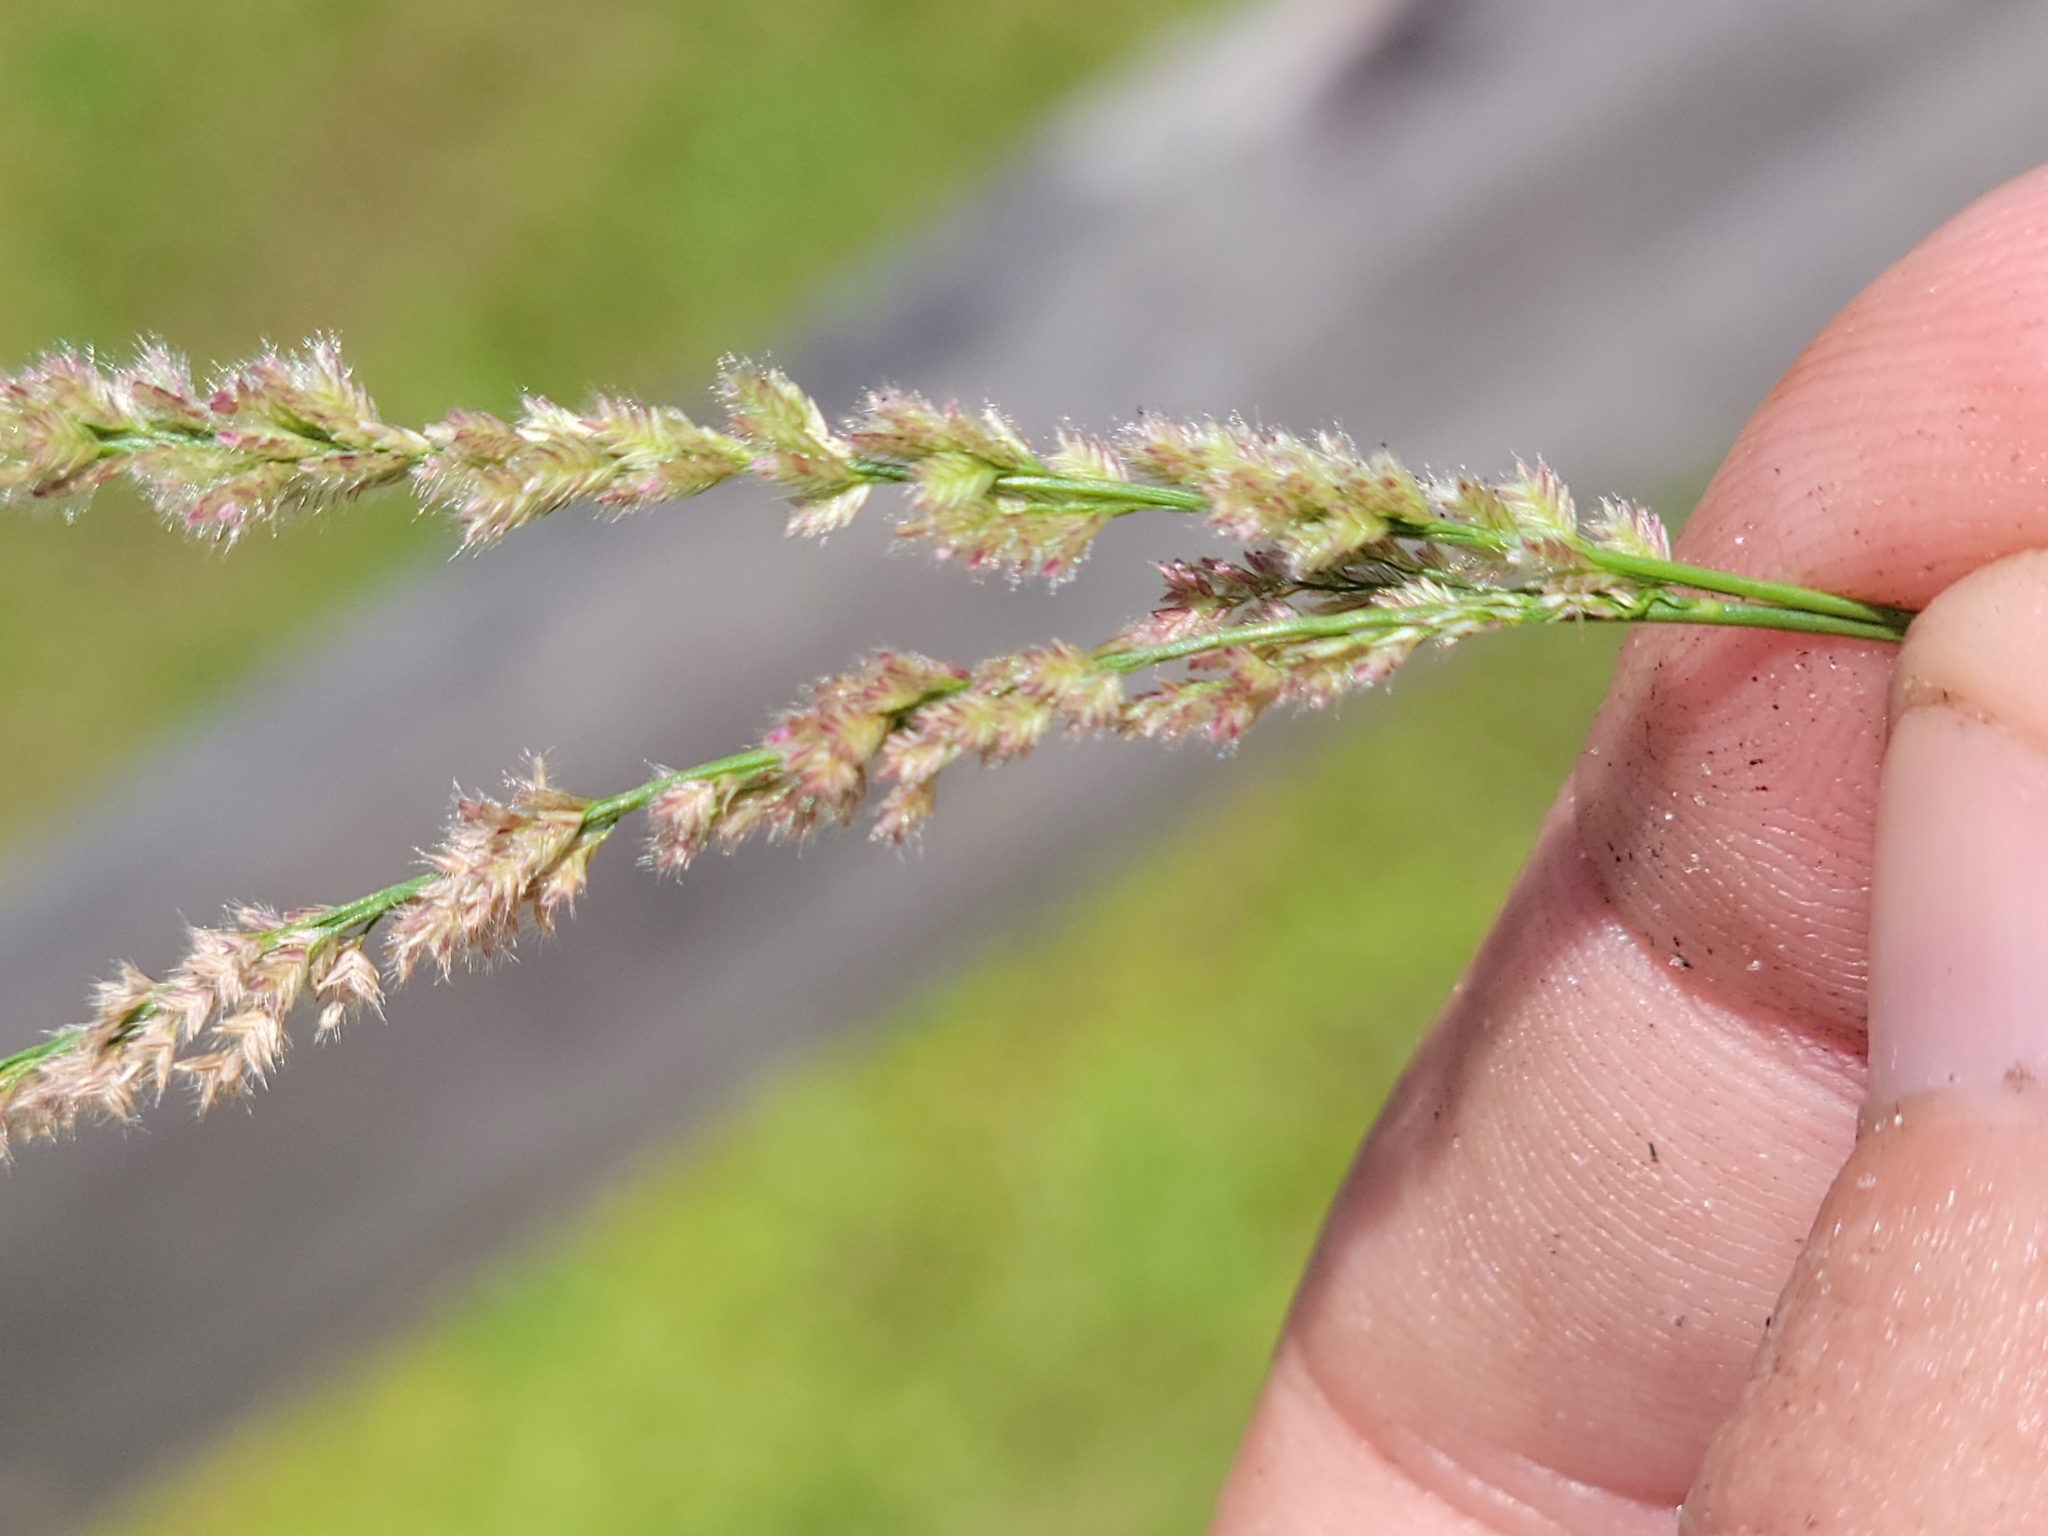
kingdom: Plantae
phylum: Tracheophyta
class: Liliopsida
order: Poales
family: Poaceae
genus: Eragrostis
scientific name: Eragrostis ciliaris
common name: Gophertail lovegrass
